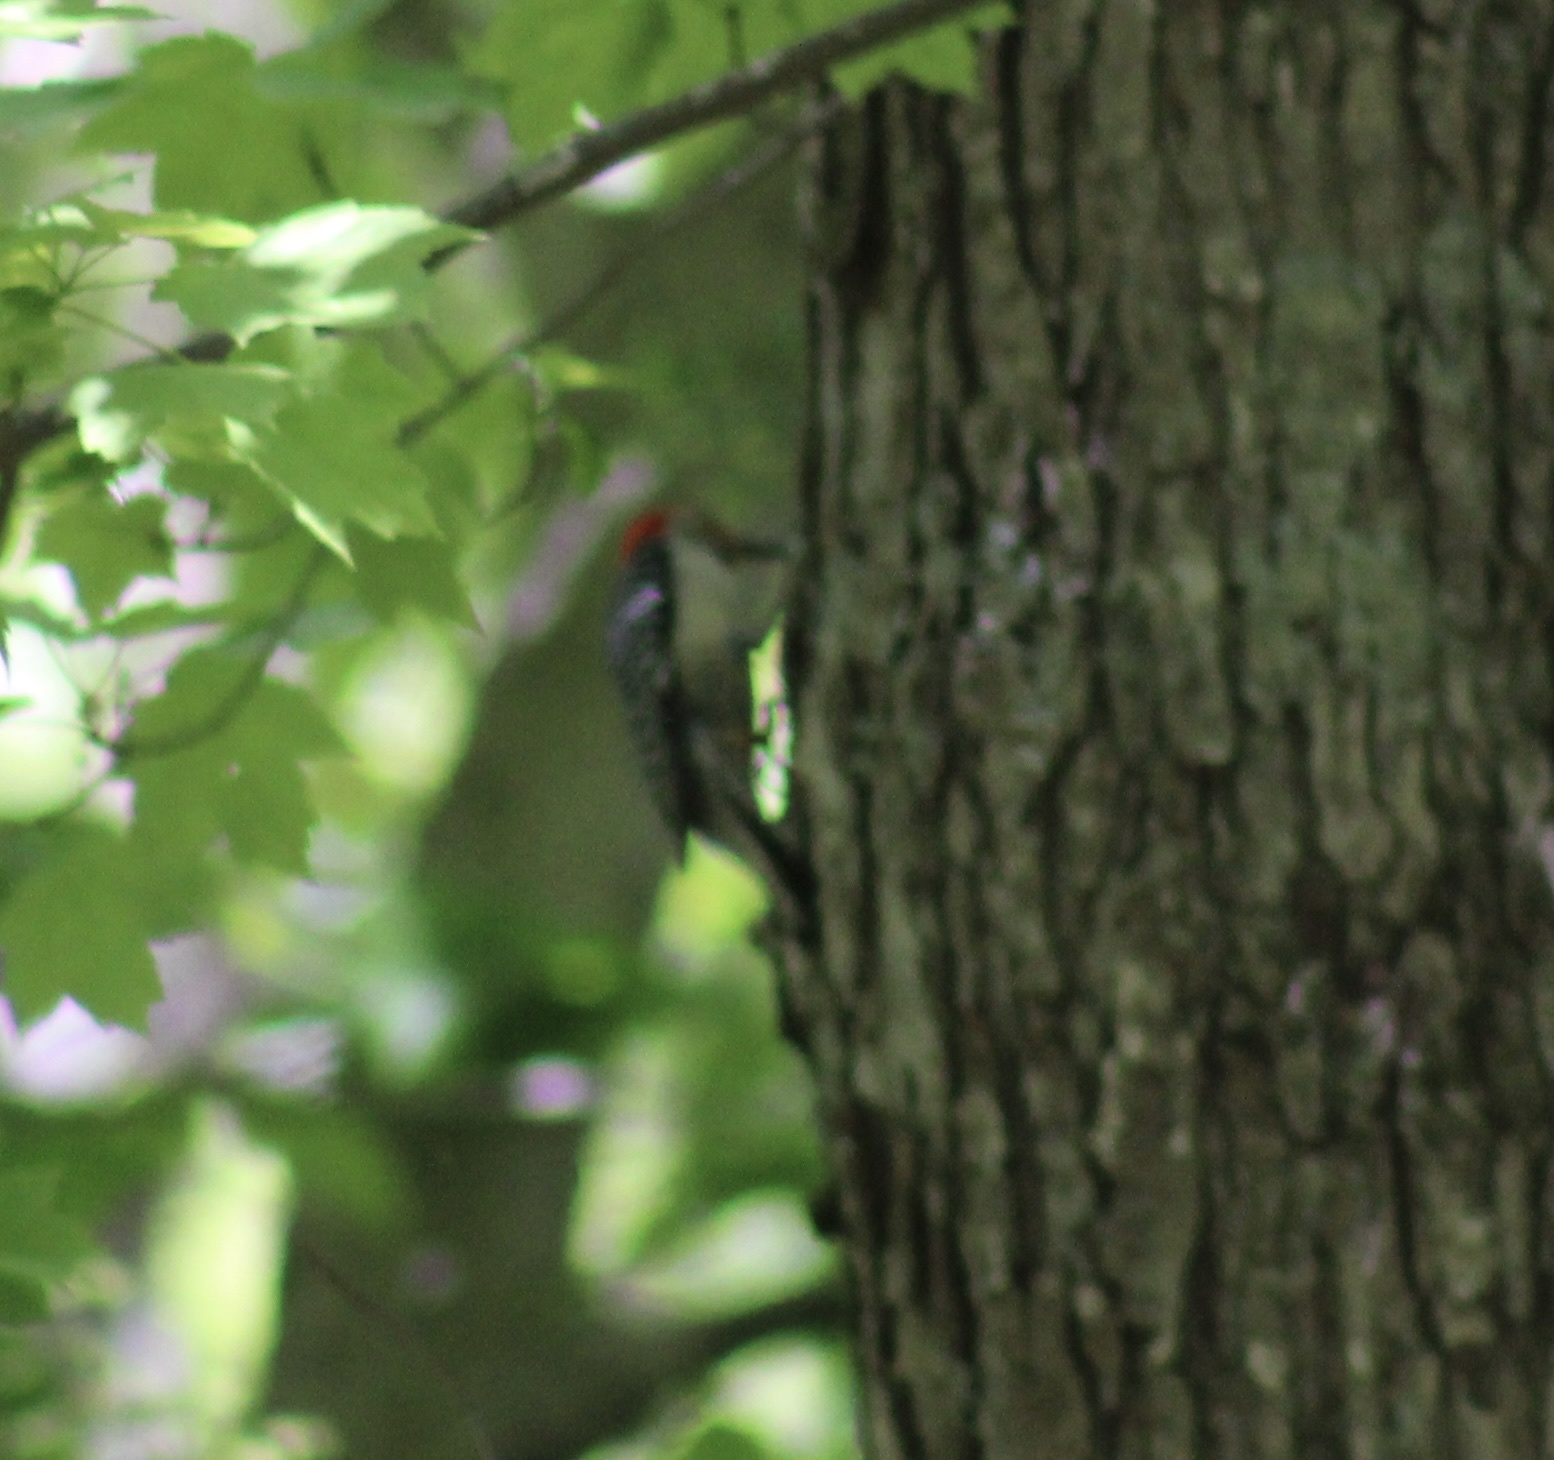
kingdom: Animalia
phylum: Chordata
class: Aves
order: Piciformes
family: Picidae
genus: Melanerpes
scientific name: Melanerpes carolinus
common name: Red-bellied woodpecker
